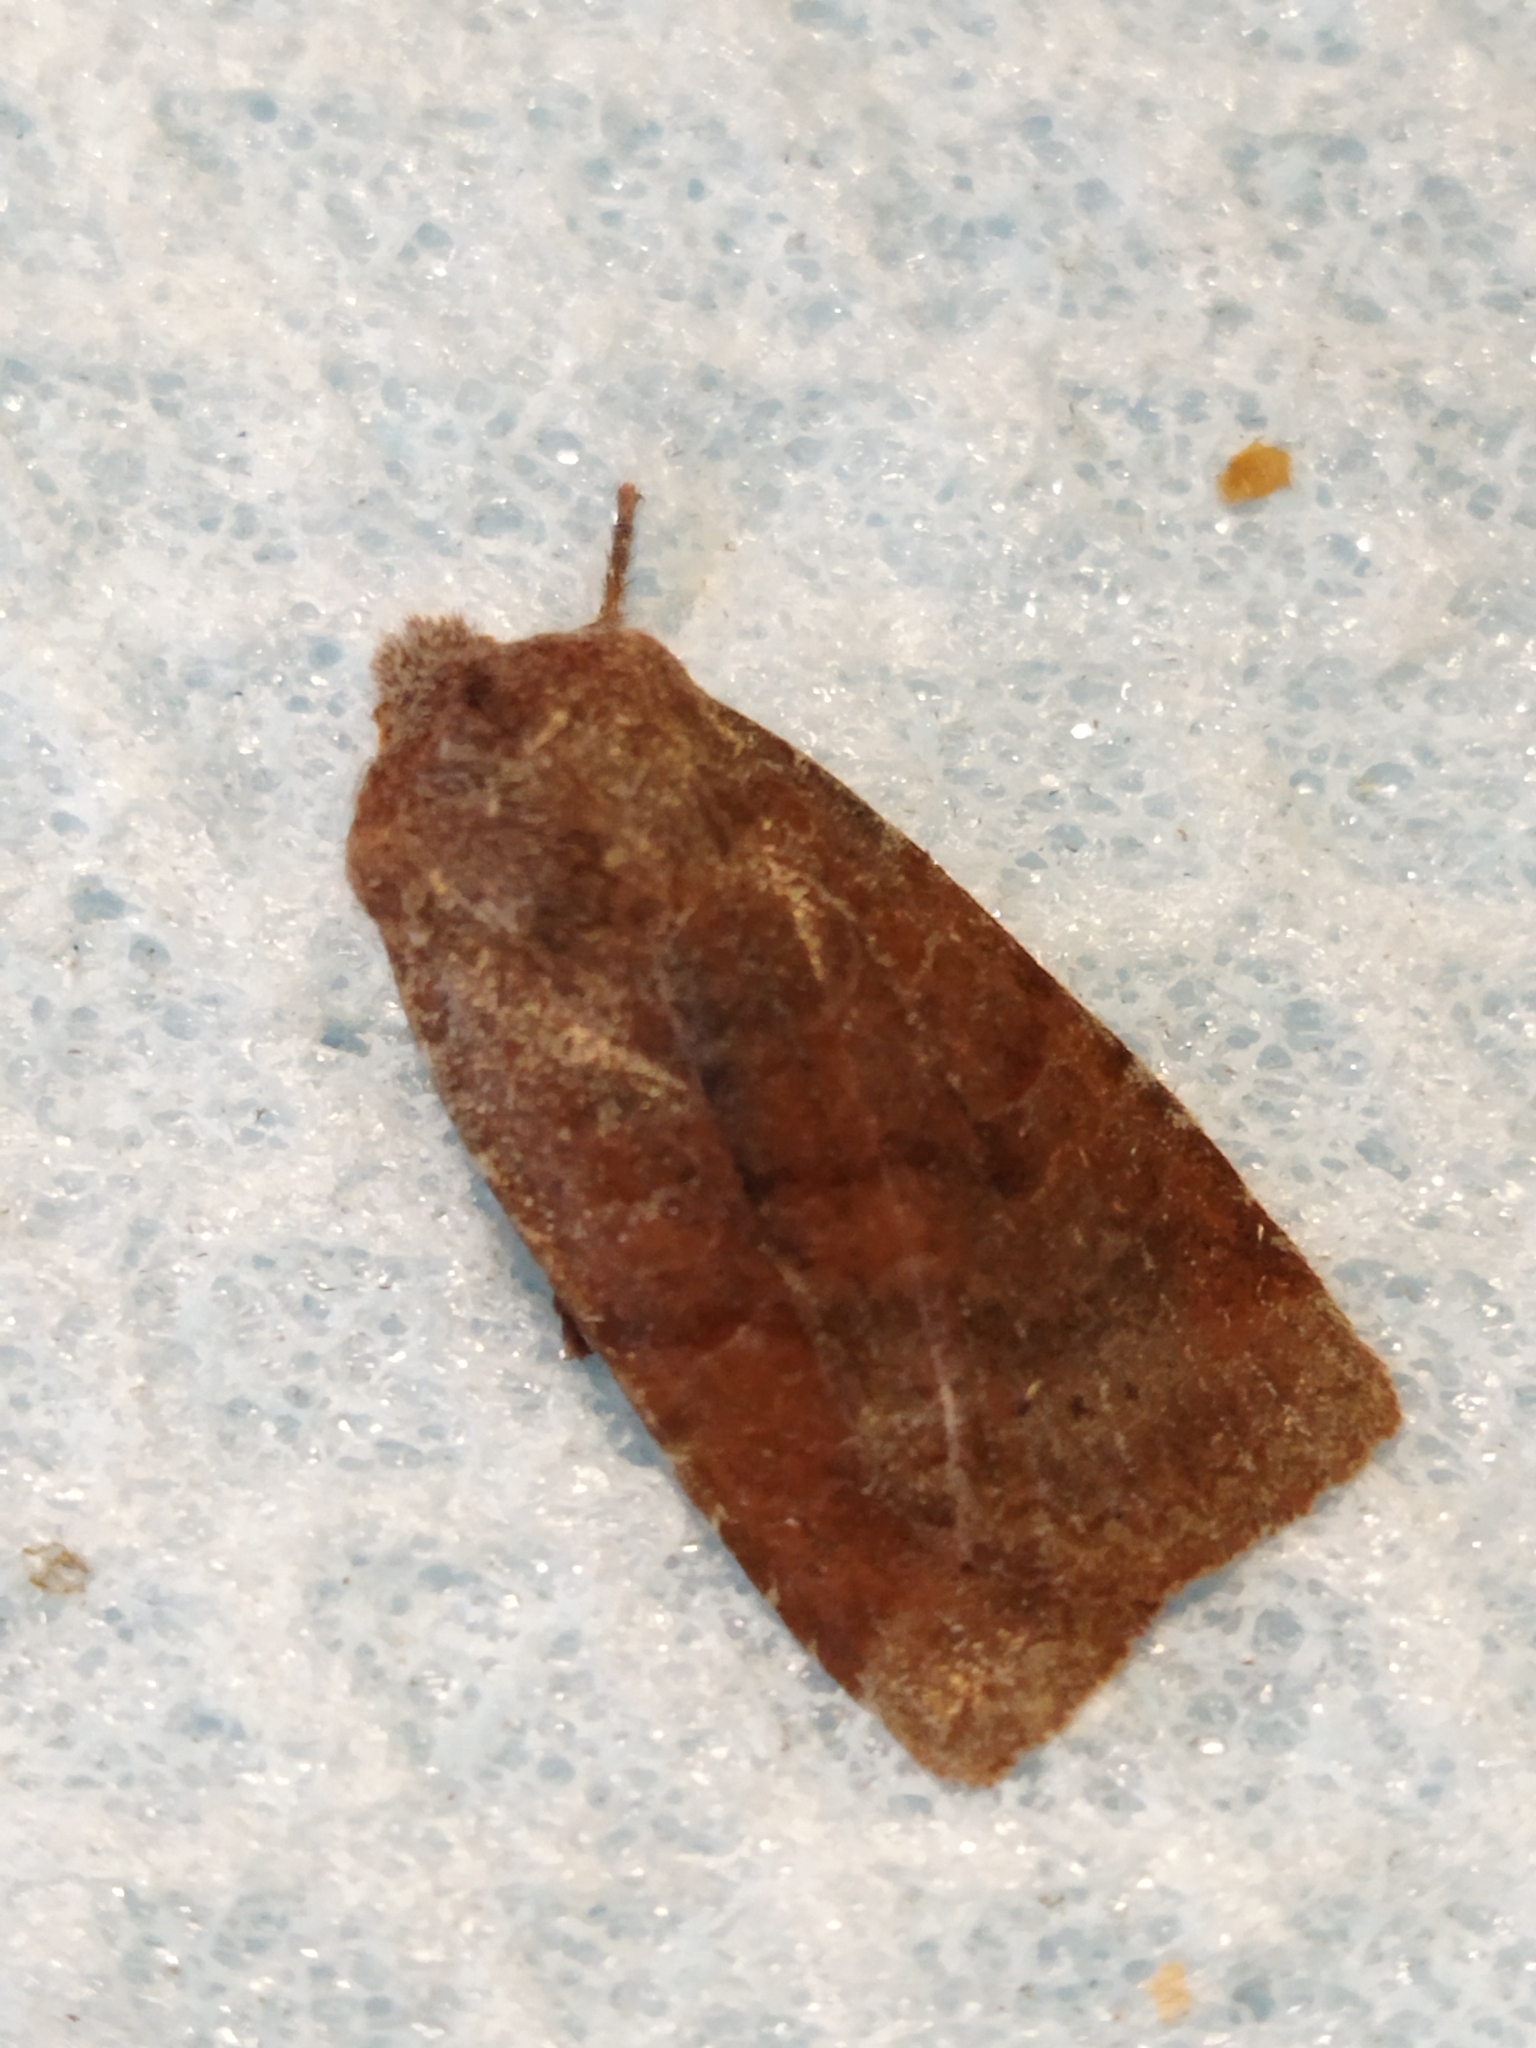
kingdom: Animalia
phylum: Arthropoda
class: Insecta
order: Lepidoptera
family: Noctuidae
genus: Conistra
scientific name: Conistra vaccinii
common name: Chestnut
